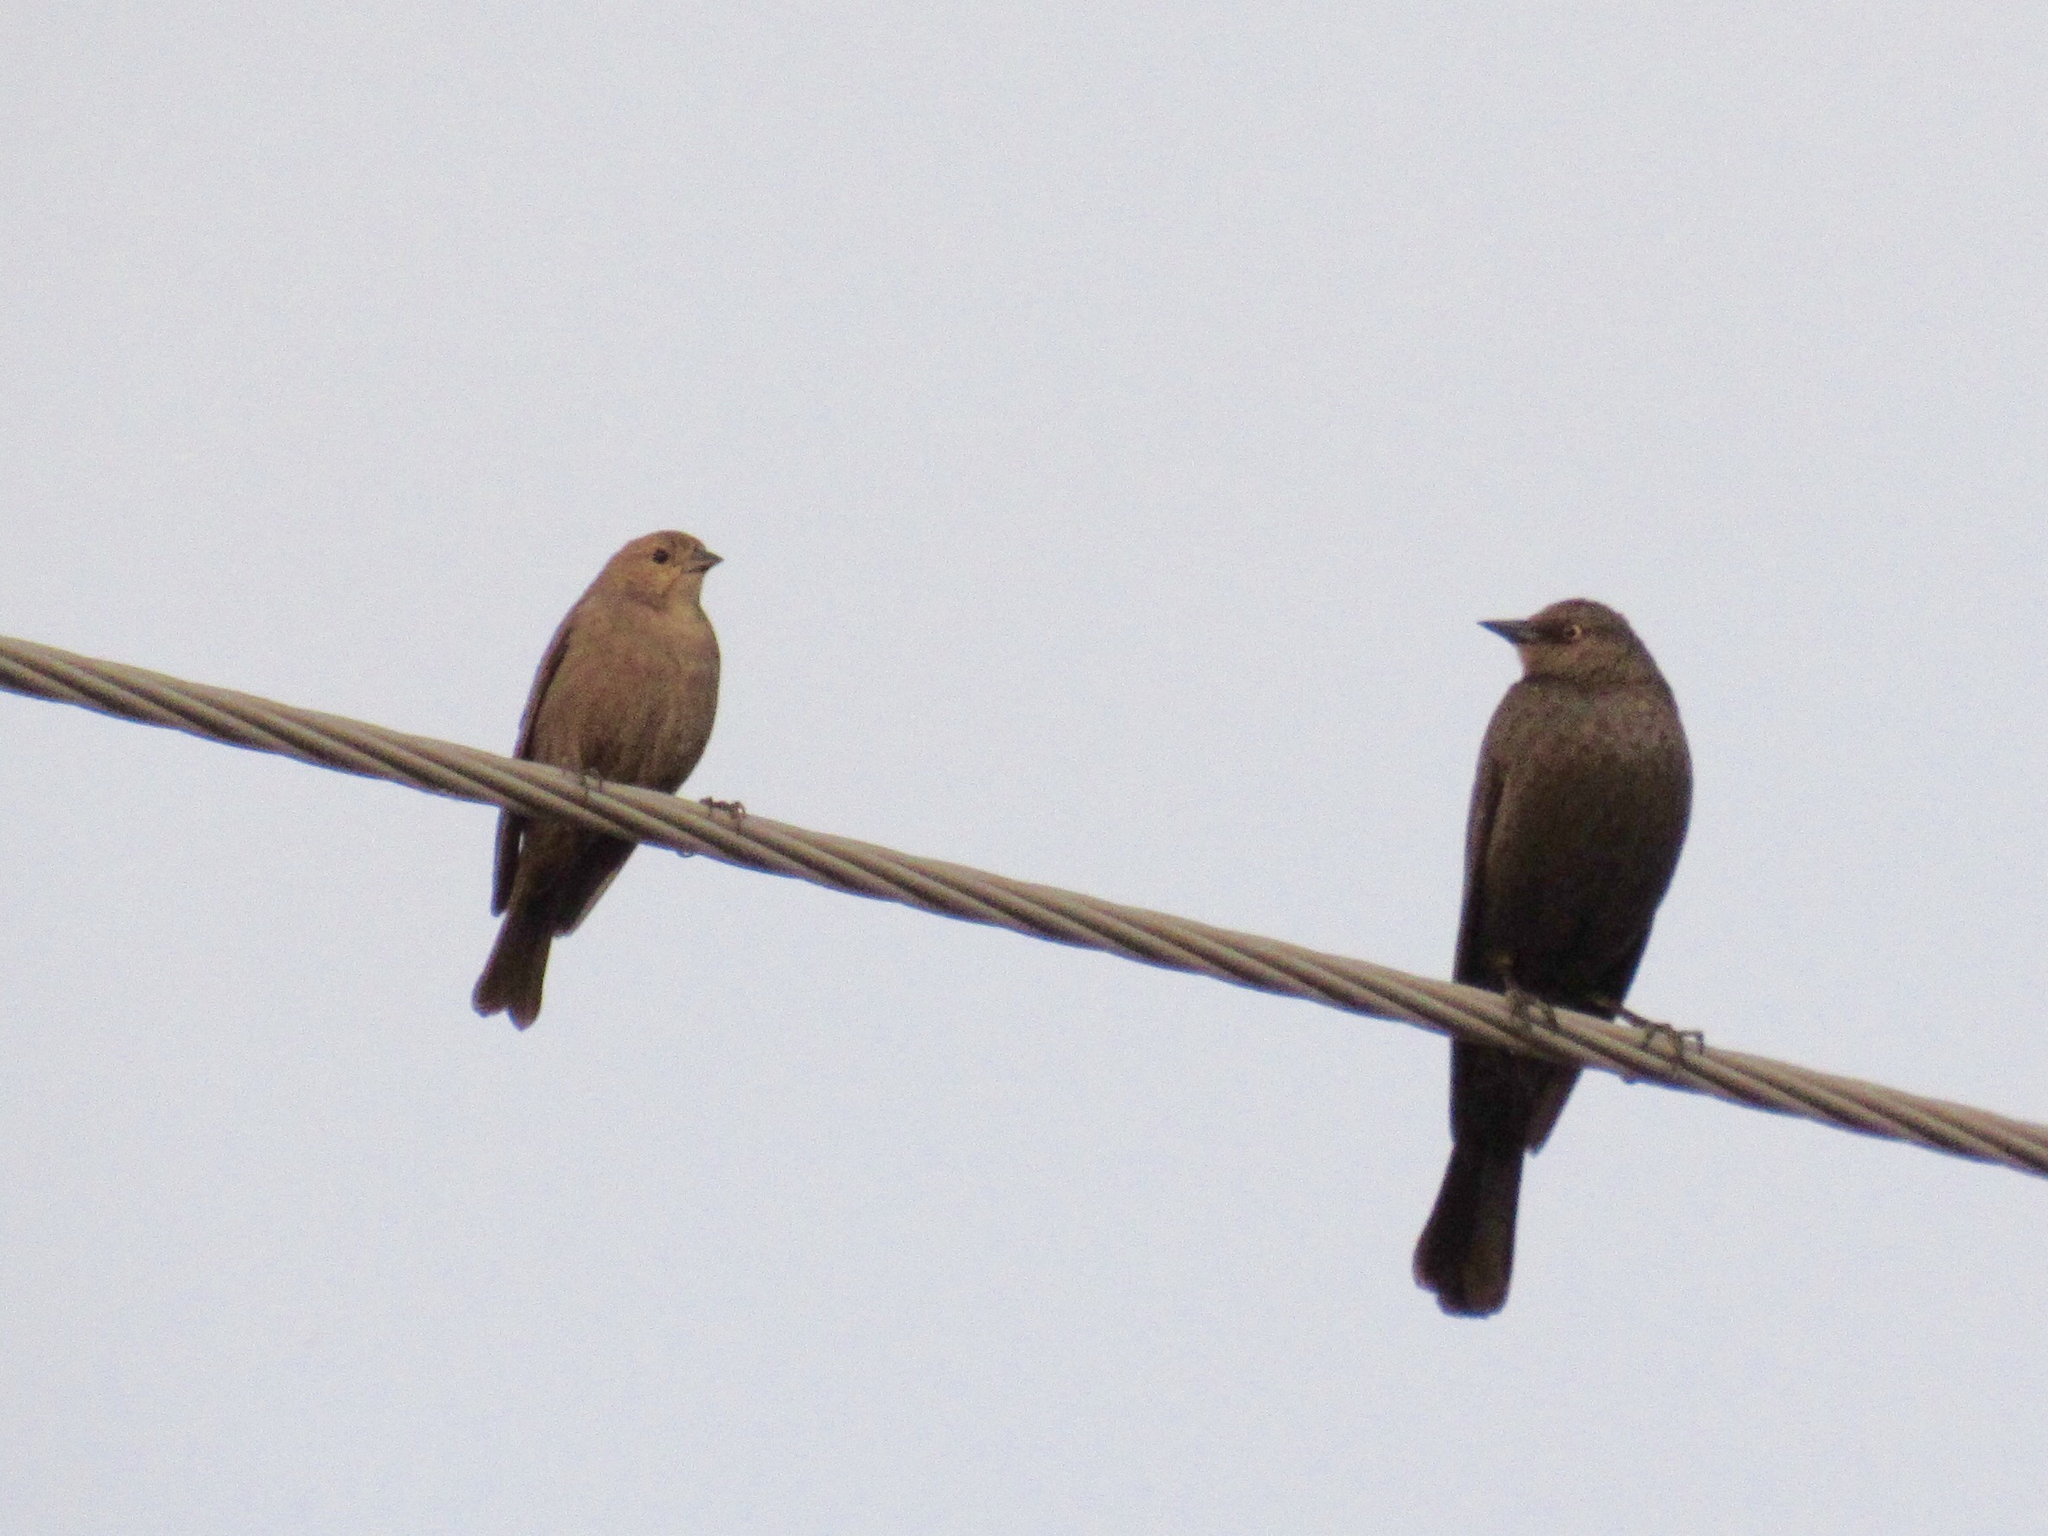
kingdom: Animalia
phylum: Chordata
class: Aves
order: Passeriformes
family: Icteridae
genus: Euphagus
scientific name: Euphagus cyanocephalus
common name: Brewer's blackbird
